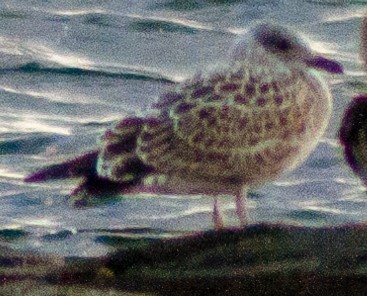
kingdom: Animalia
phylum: Chordata
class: Aves
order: Charadriiformes
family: Laridae
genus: Larus
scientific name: Larus argentatus
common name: Herring gull
